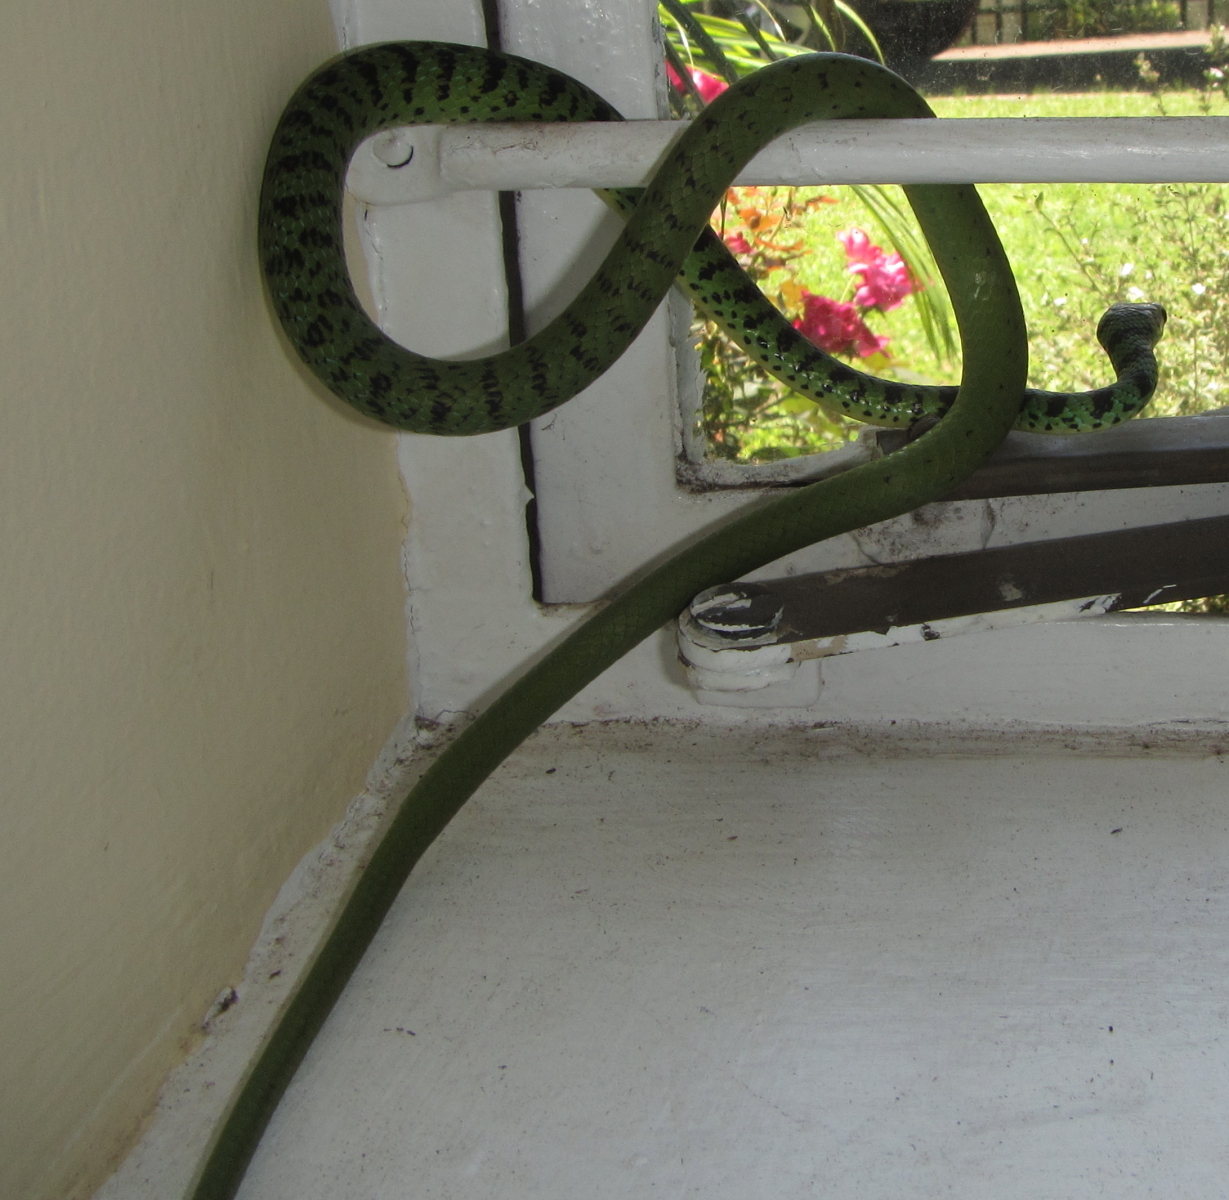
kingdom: Animalia
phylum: Chordata
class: Squamata
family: Colubridae
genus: Philothamnus
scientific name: Philothamnus semivariegatus
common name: Spotted bush snake
